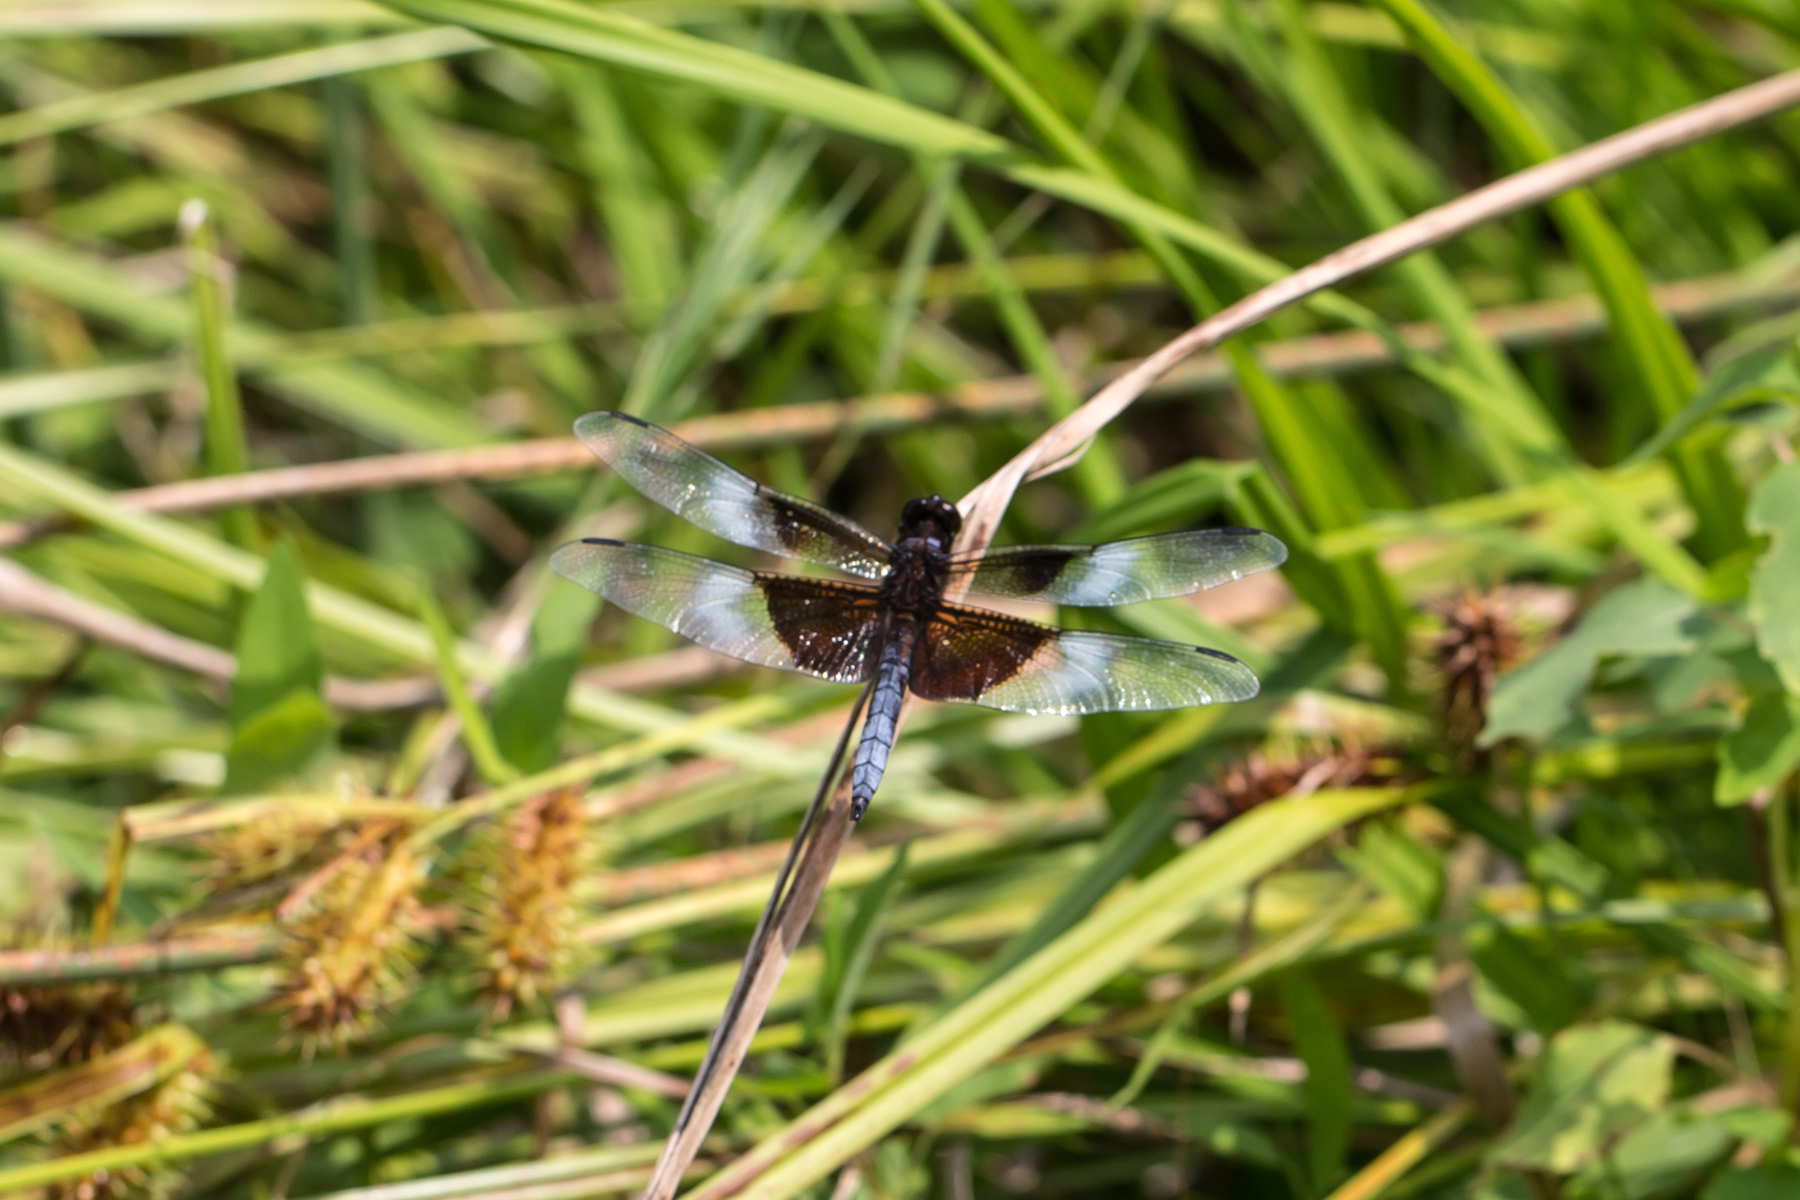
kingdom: Animalia
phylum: Arthropoda
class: Insecta
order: Odonata
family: Libellulidae
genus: Libellula
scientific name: Libellula luctuosa
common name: Widow skimmer
